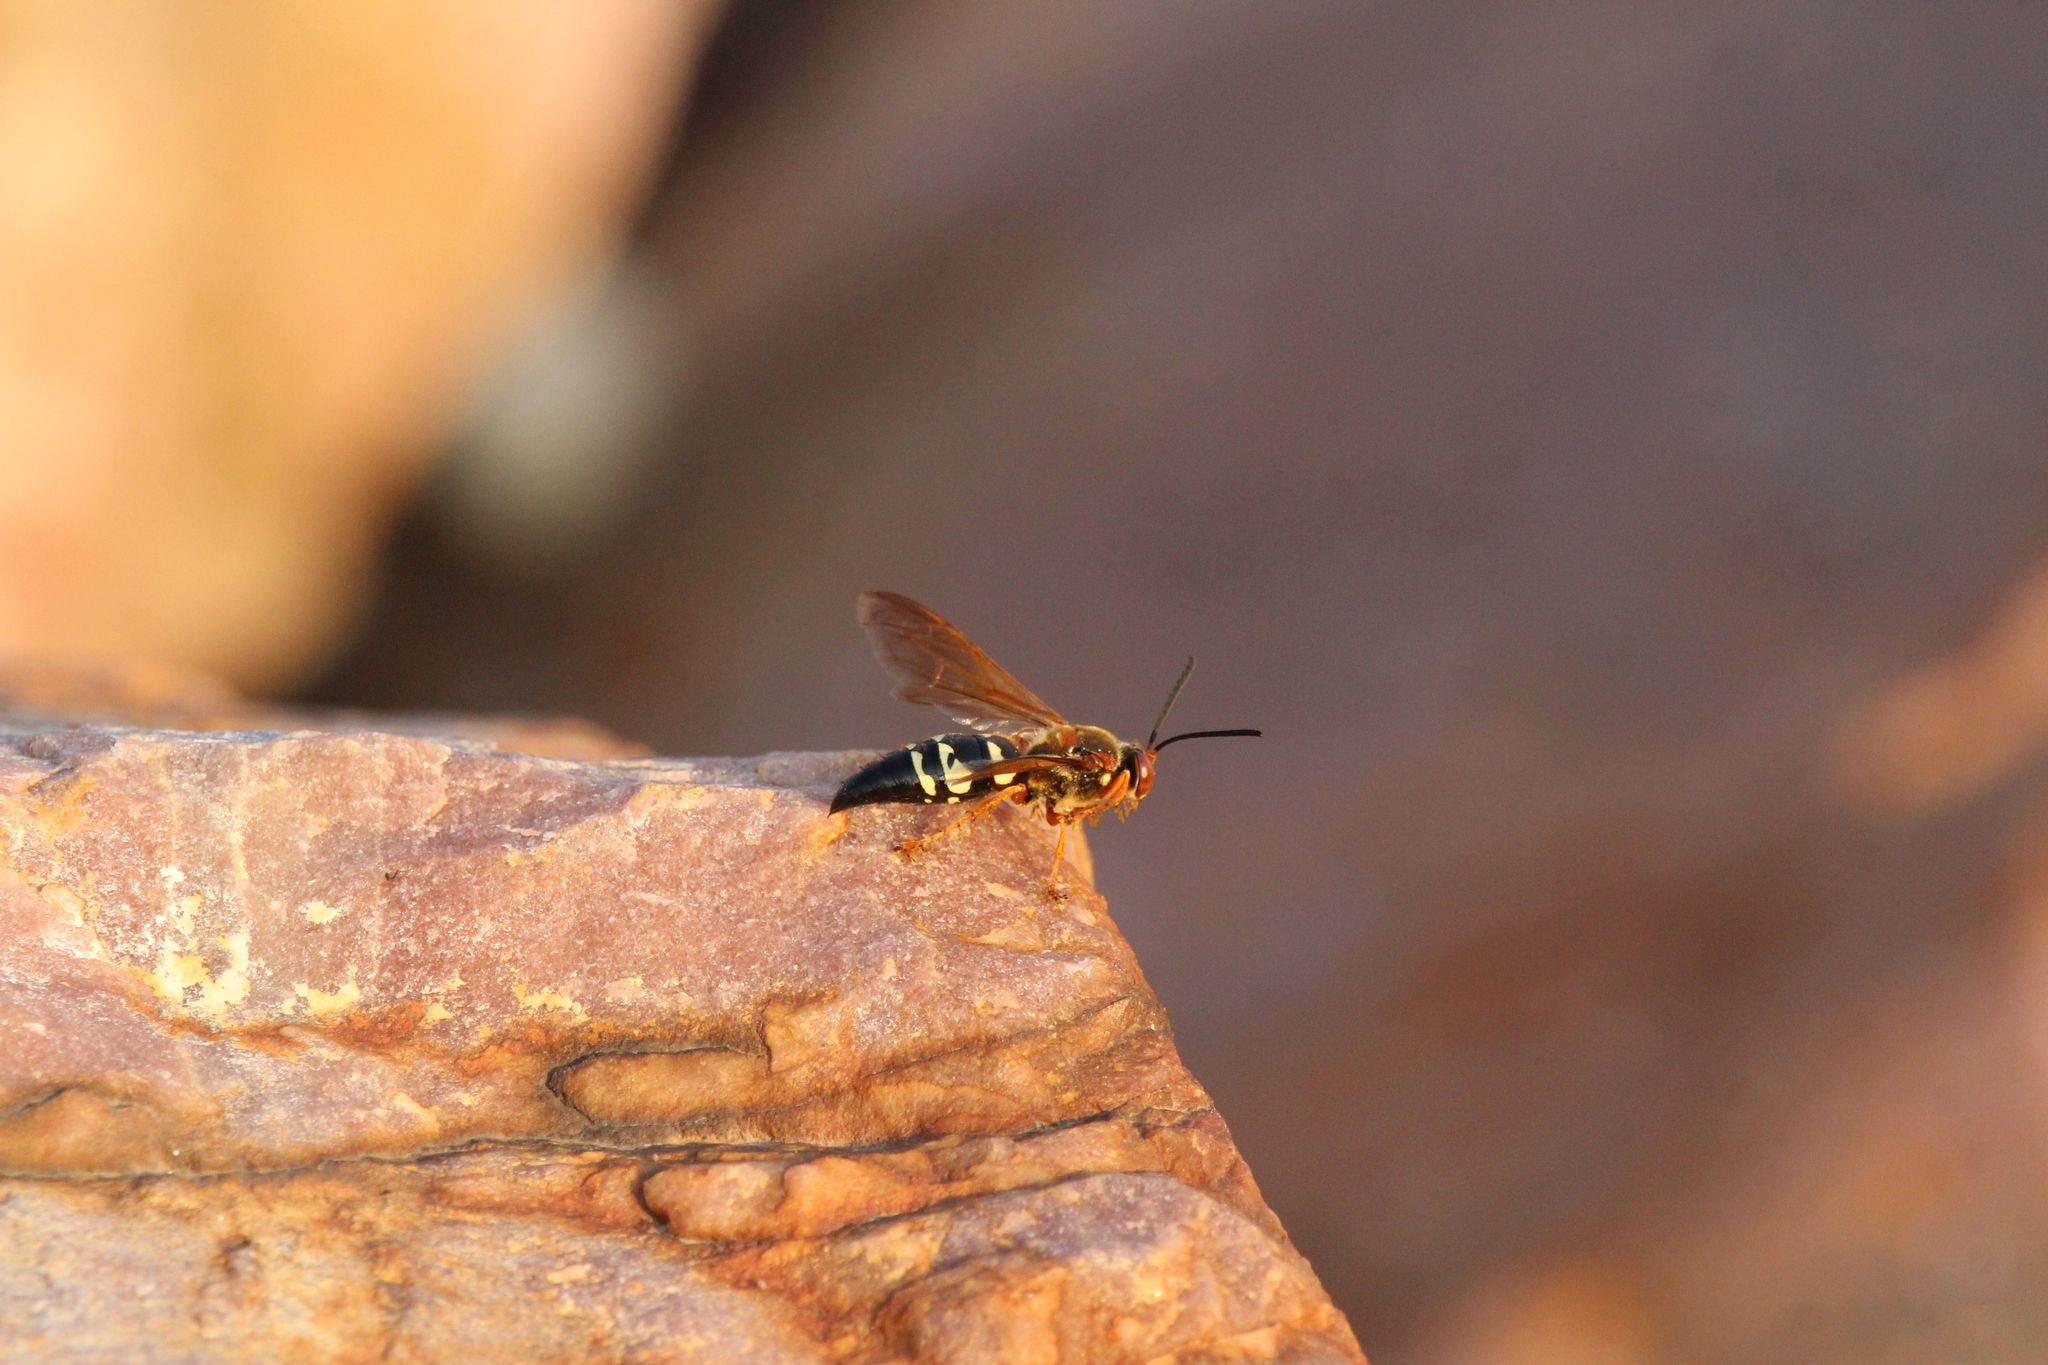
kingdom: Animalia
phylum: Arthropoda
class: Insecta
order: Hymenoptera
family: Crabronidae
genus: Sphecius
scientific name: Sphecius speciosus
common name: Cicada killer
